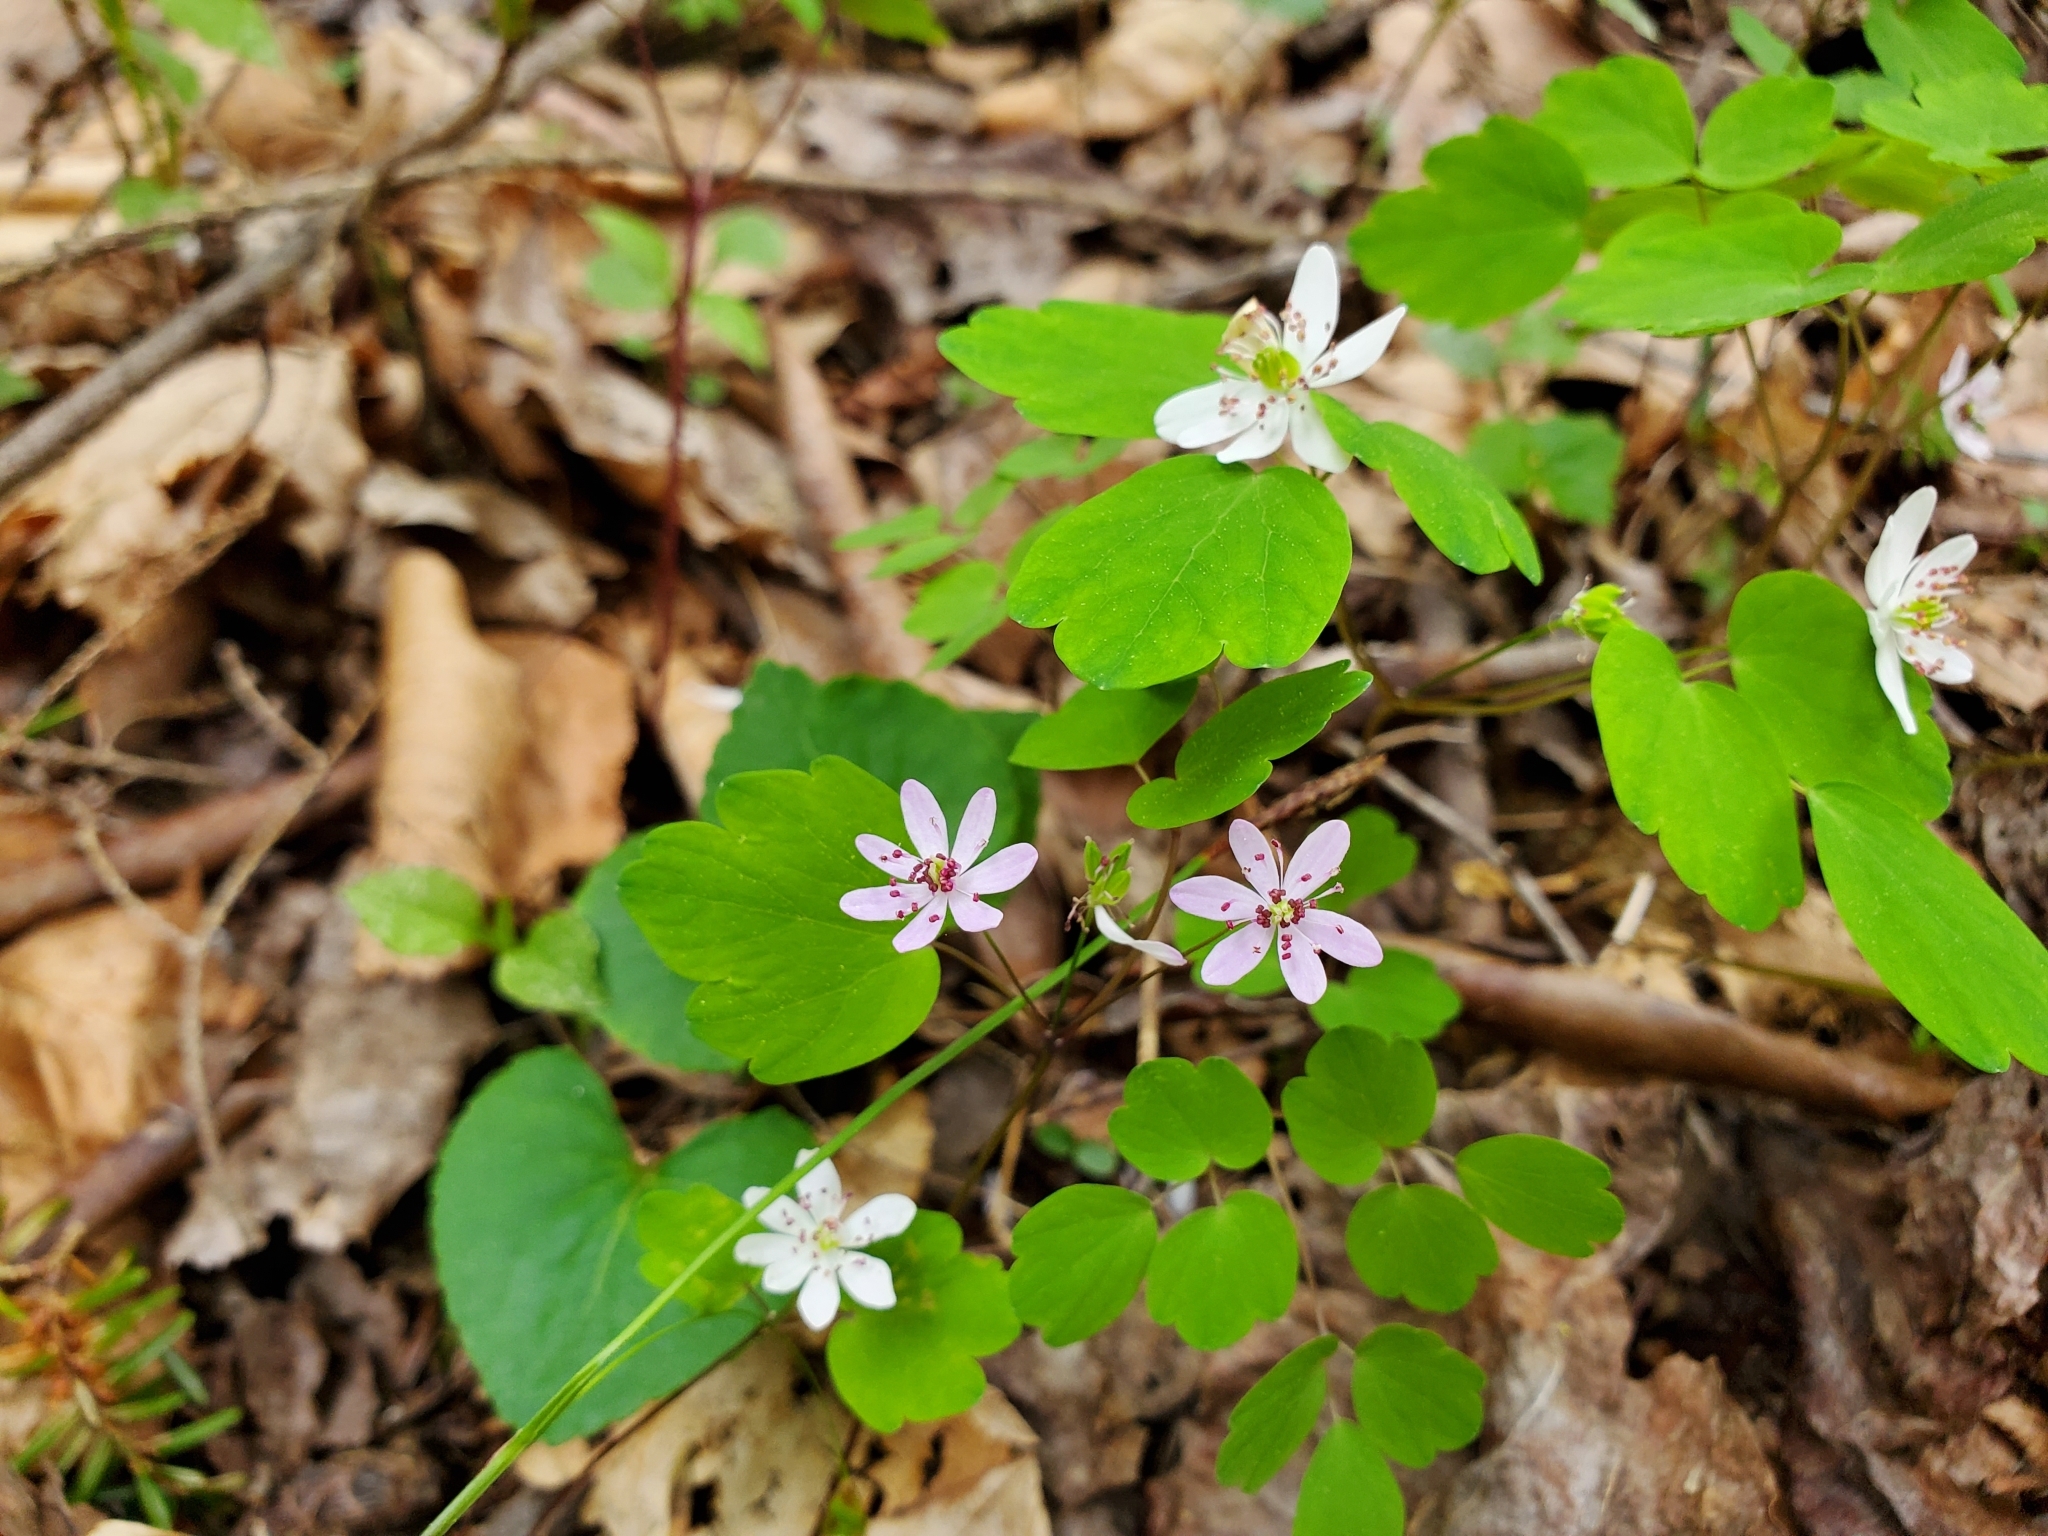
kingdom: Plantae
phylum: Tracheophyta
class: Magnoliopsida
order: Ranunculales
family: Ranunculaceae
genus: Thalictrum
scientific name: Thalictrum thalictroides
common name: Rue-anemone
